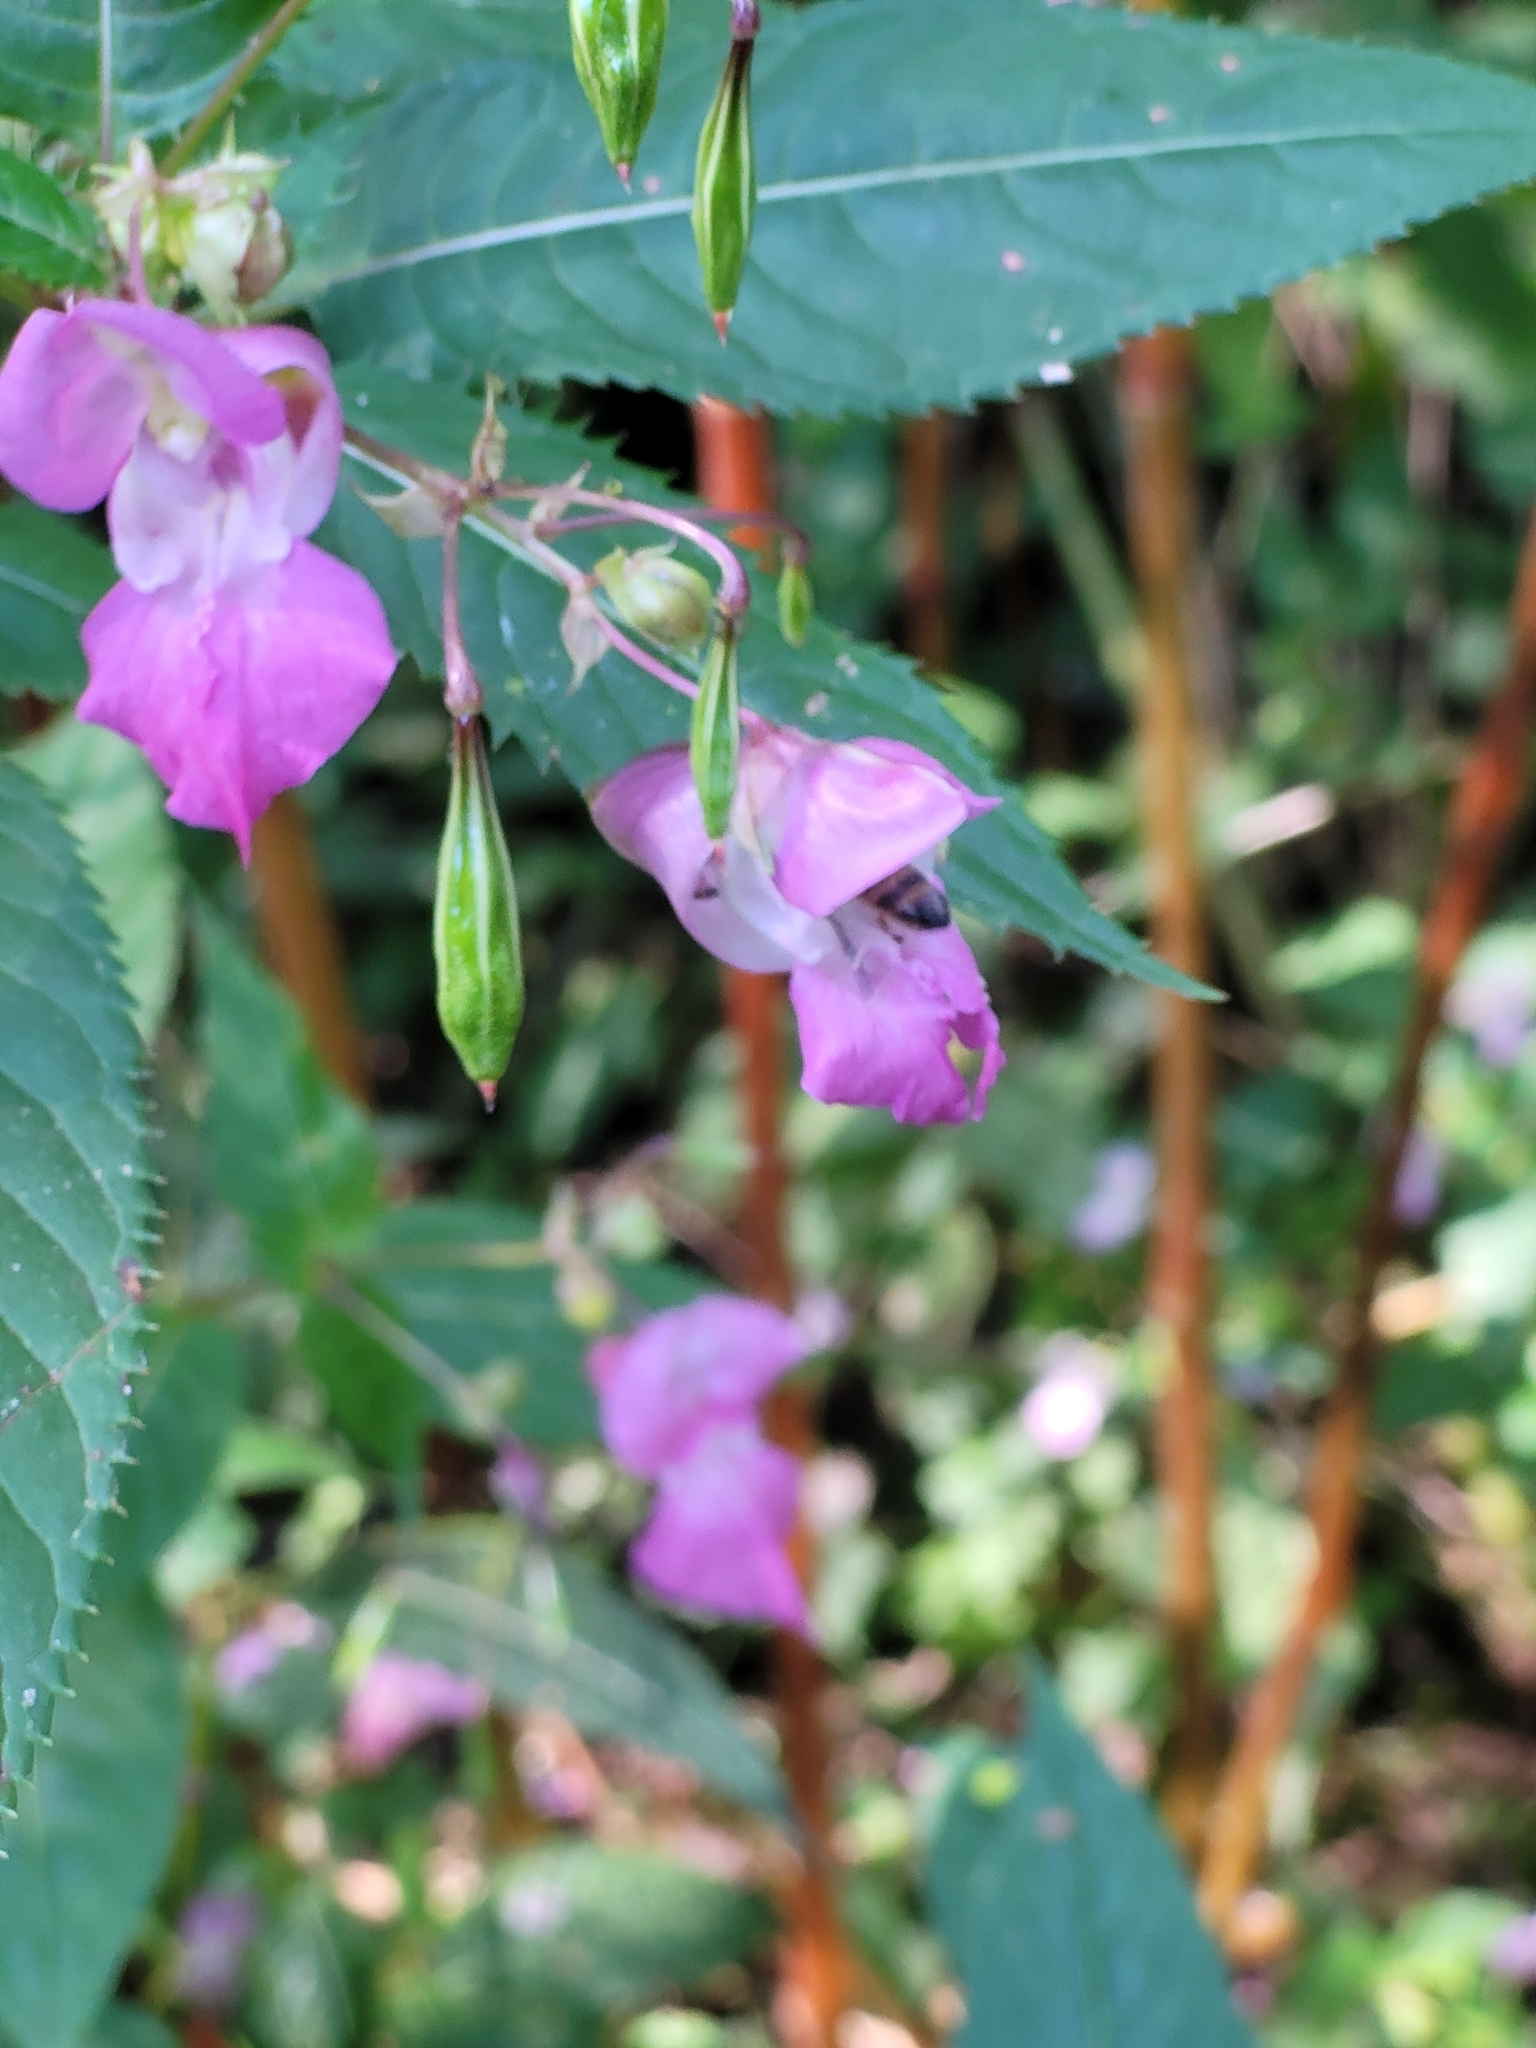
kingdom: Plantae
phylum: Tracheophyta
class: Magnoliopsida
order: Ericales
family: Balsaminaceae
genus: Impatiens
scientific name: Impatiens glandulifera
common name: Himalayan balsam
